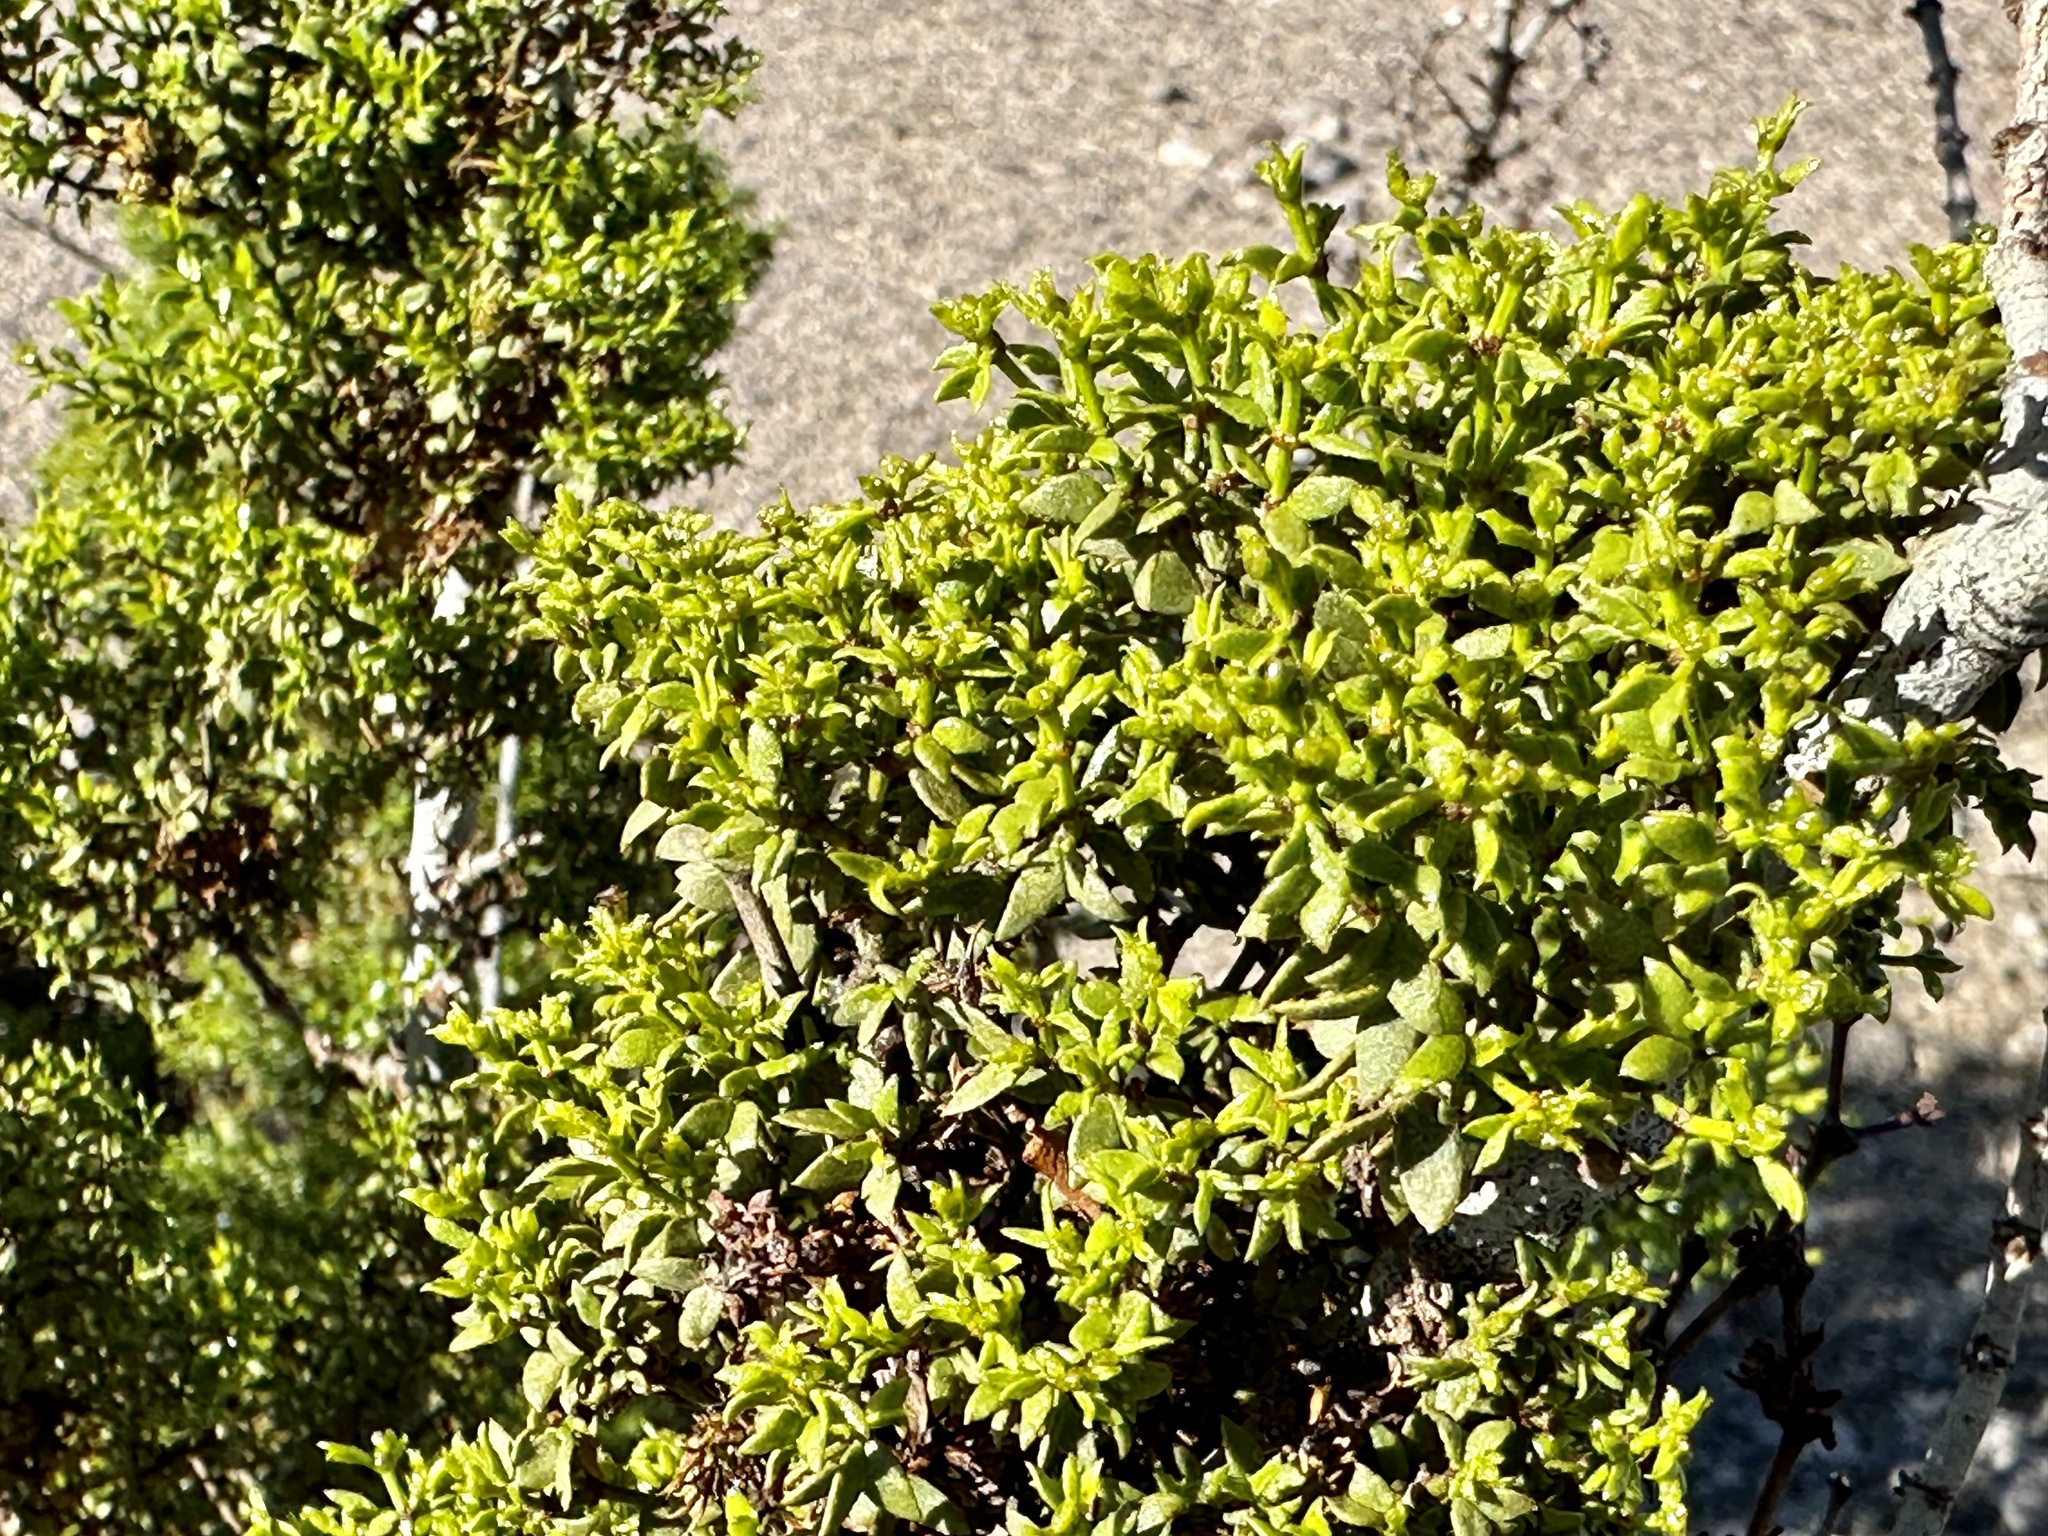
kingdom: Plantae
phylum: Tracheophyta
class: Magnoliopsida
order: Zygophyllales
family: Zygophyllaceae
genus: Larrea
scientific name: Larrea tridentata
